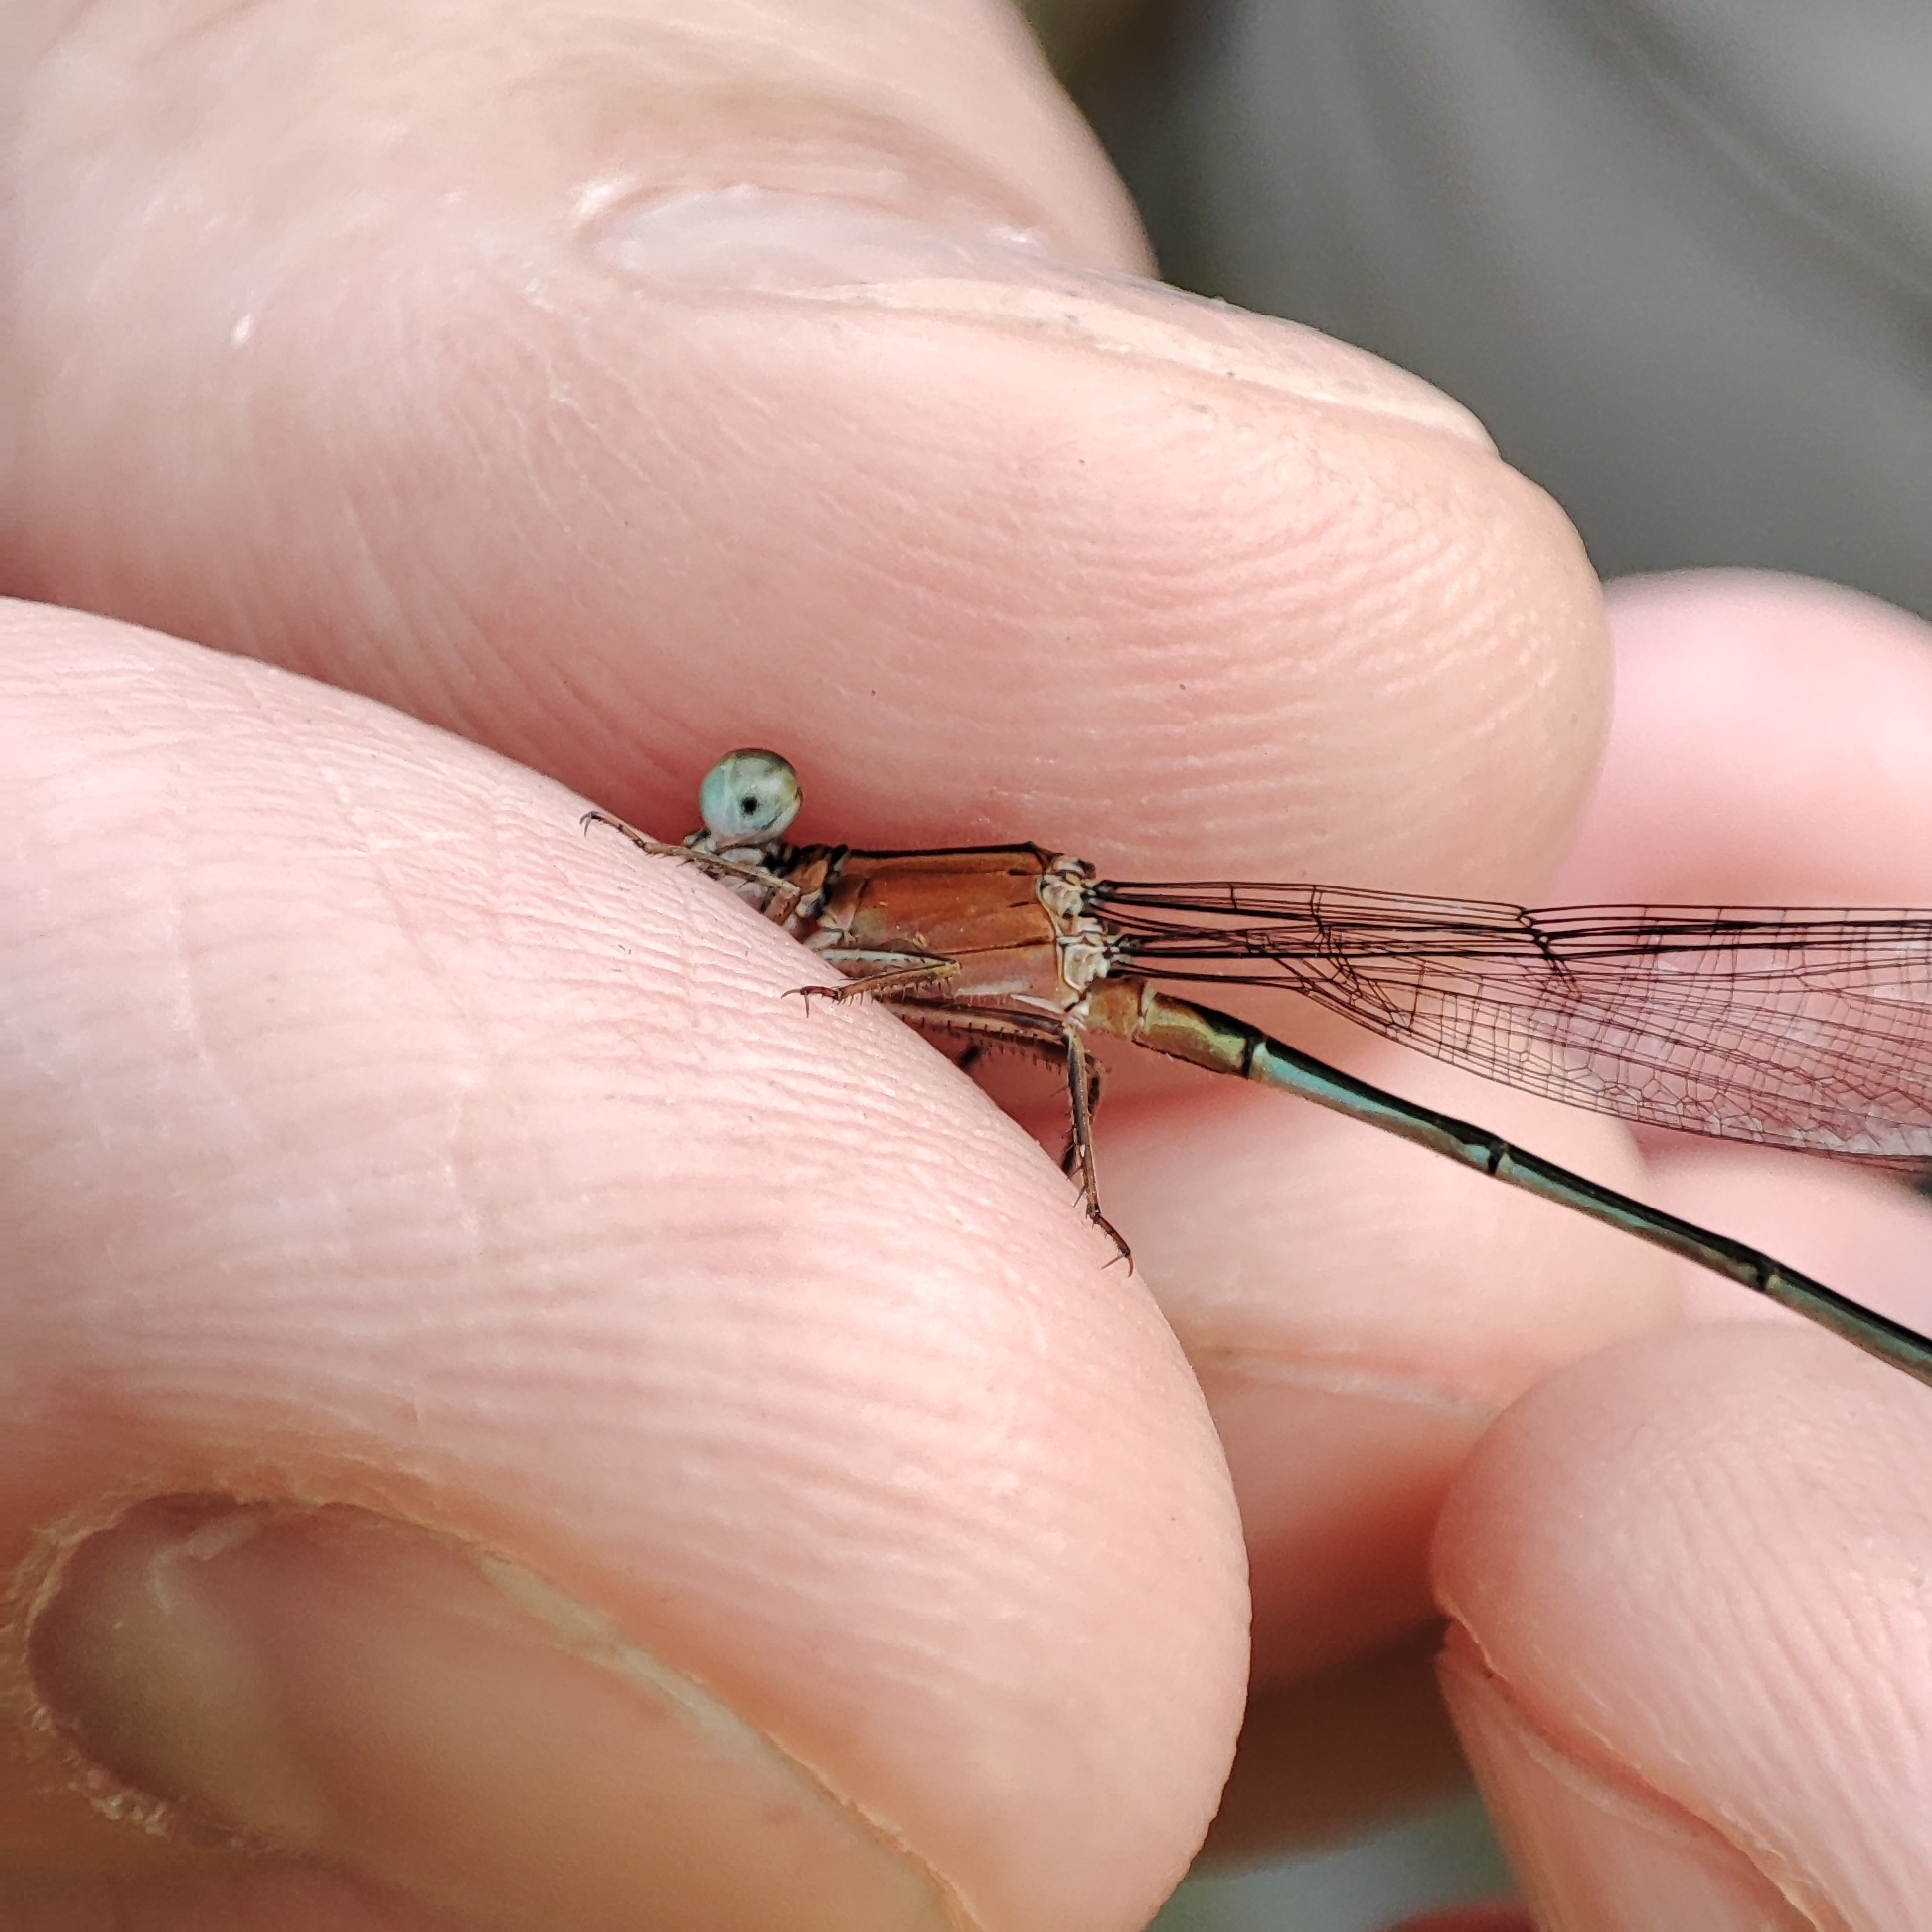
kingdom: Animalia
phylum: Arthropoda
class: Insecta
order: Odonata
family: Coenagrionidae
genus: Ischnura
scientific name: Ischnura ramburii
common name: Rambur's forktail
